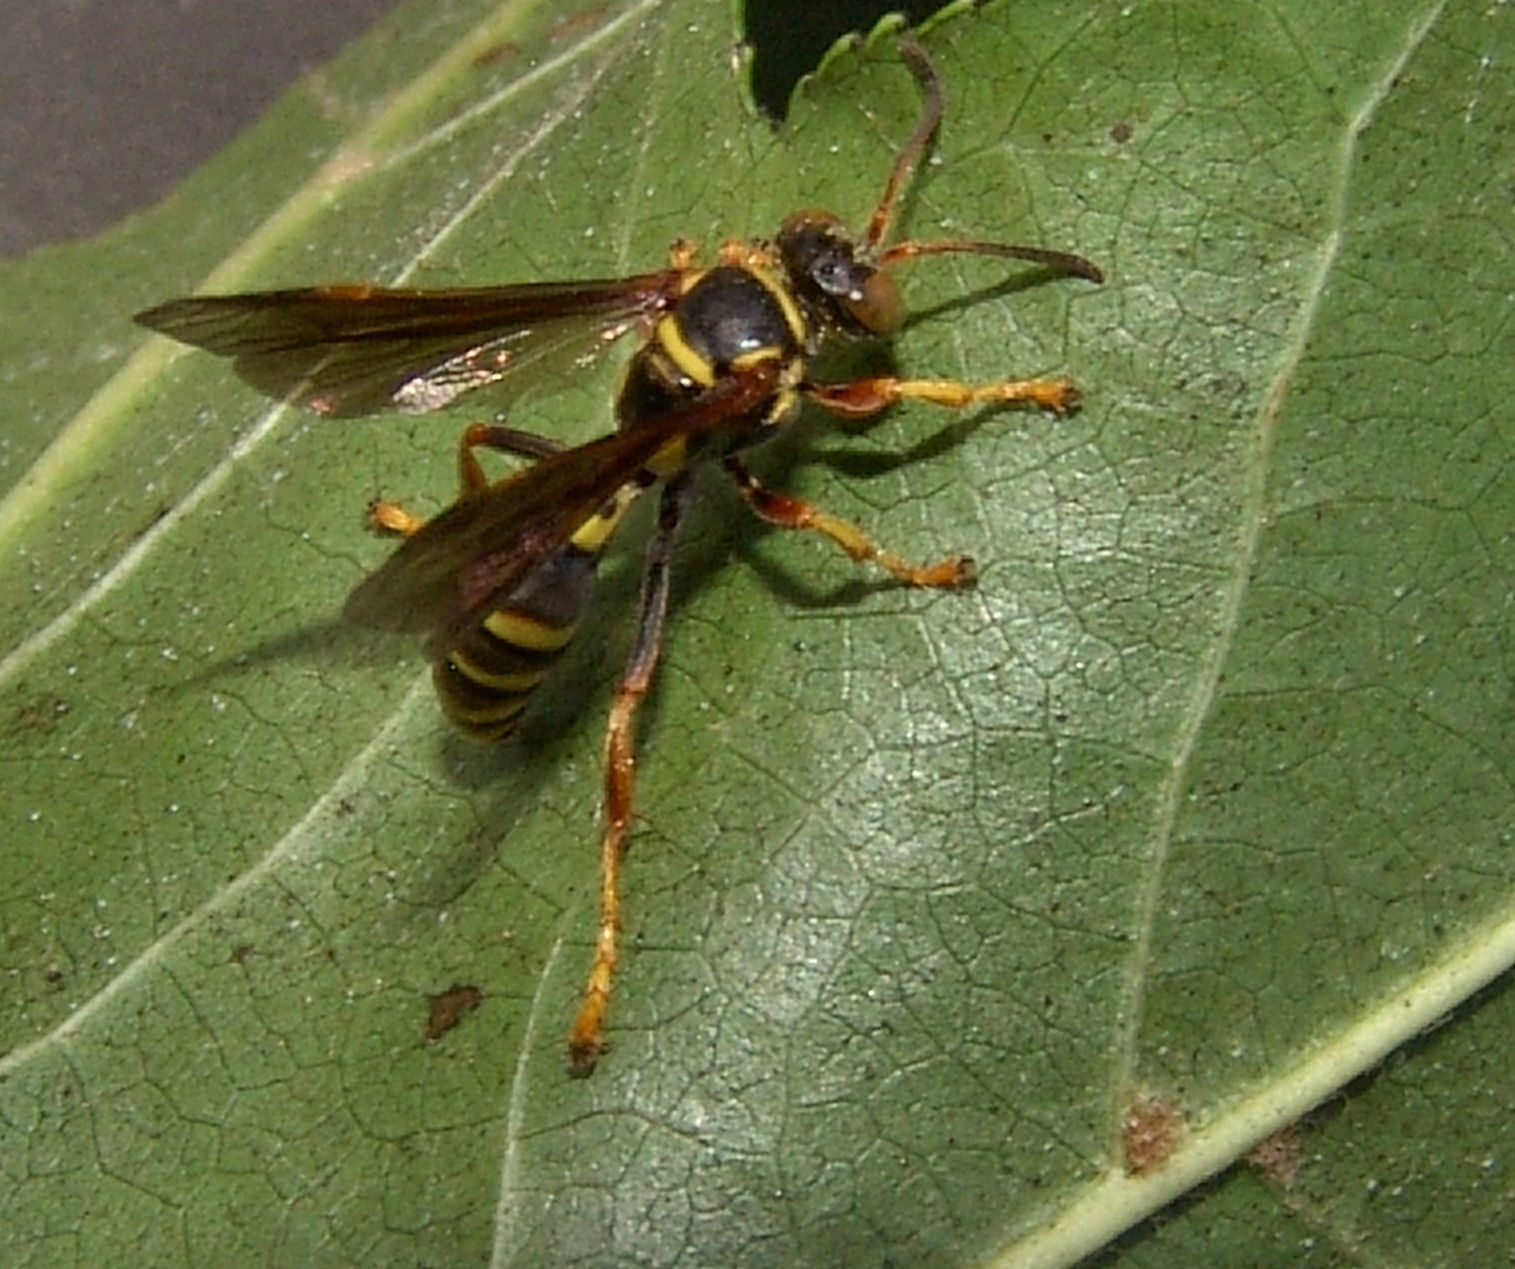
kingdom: Animalia
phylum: Arthropoda
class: Insecta
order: Hymenoptera
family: Crabronidae
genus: Saygorytes
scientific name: Saygorytes phaleratus
